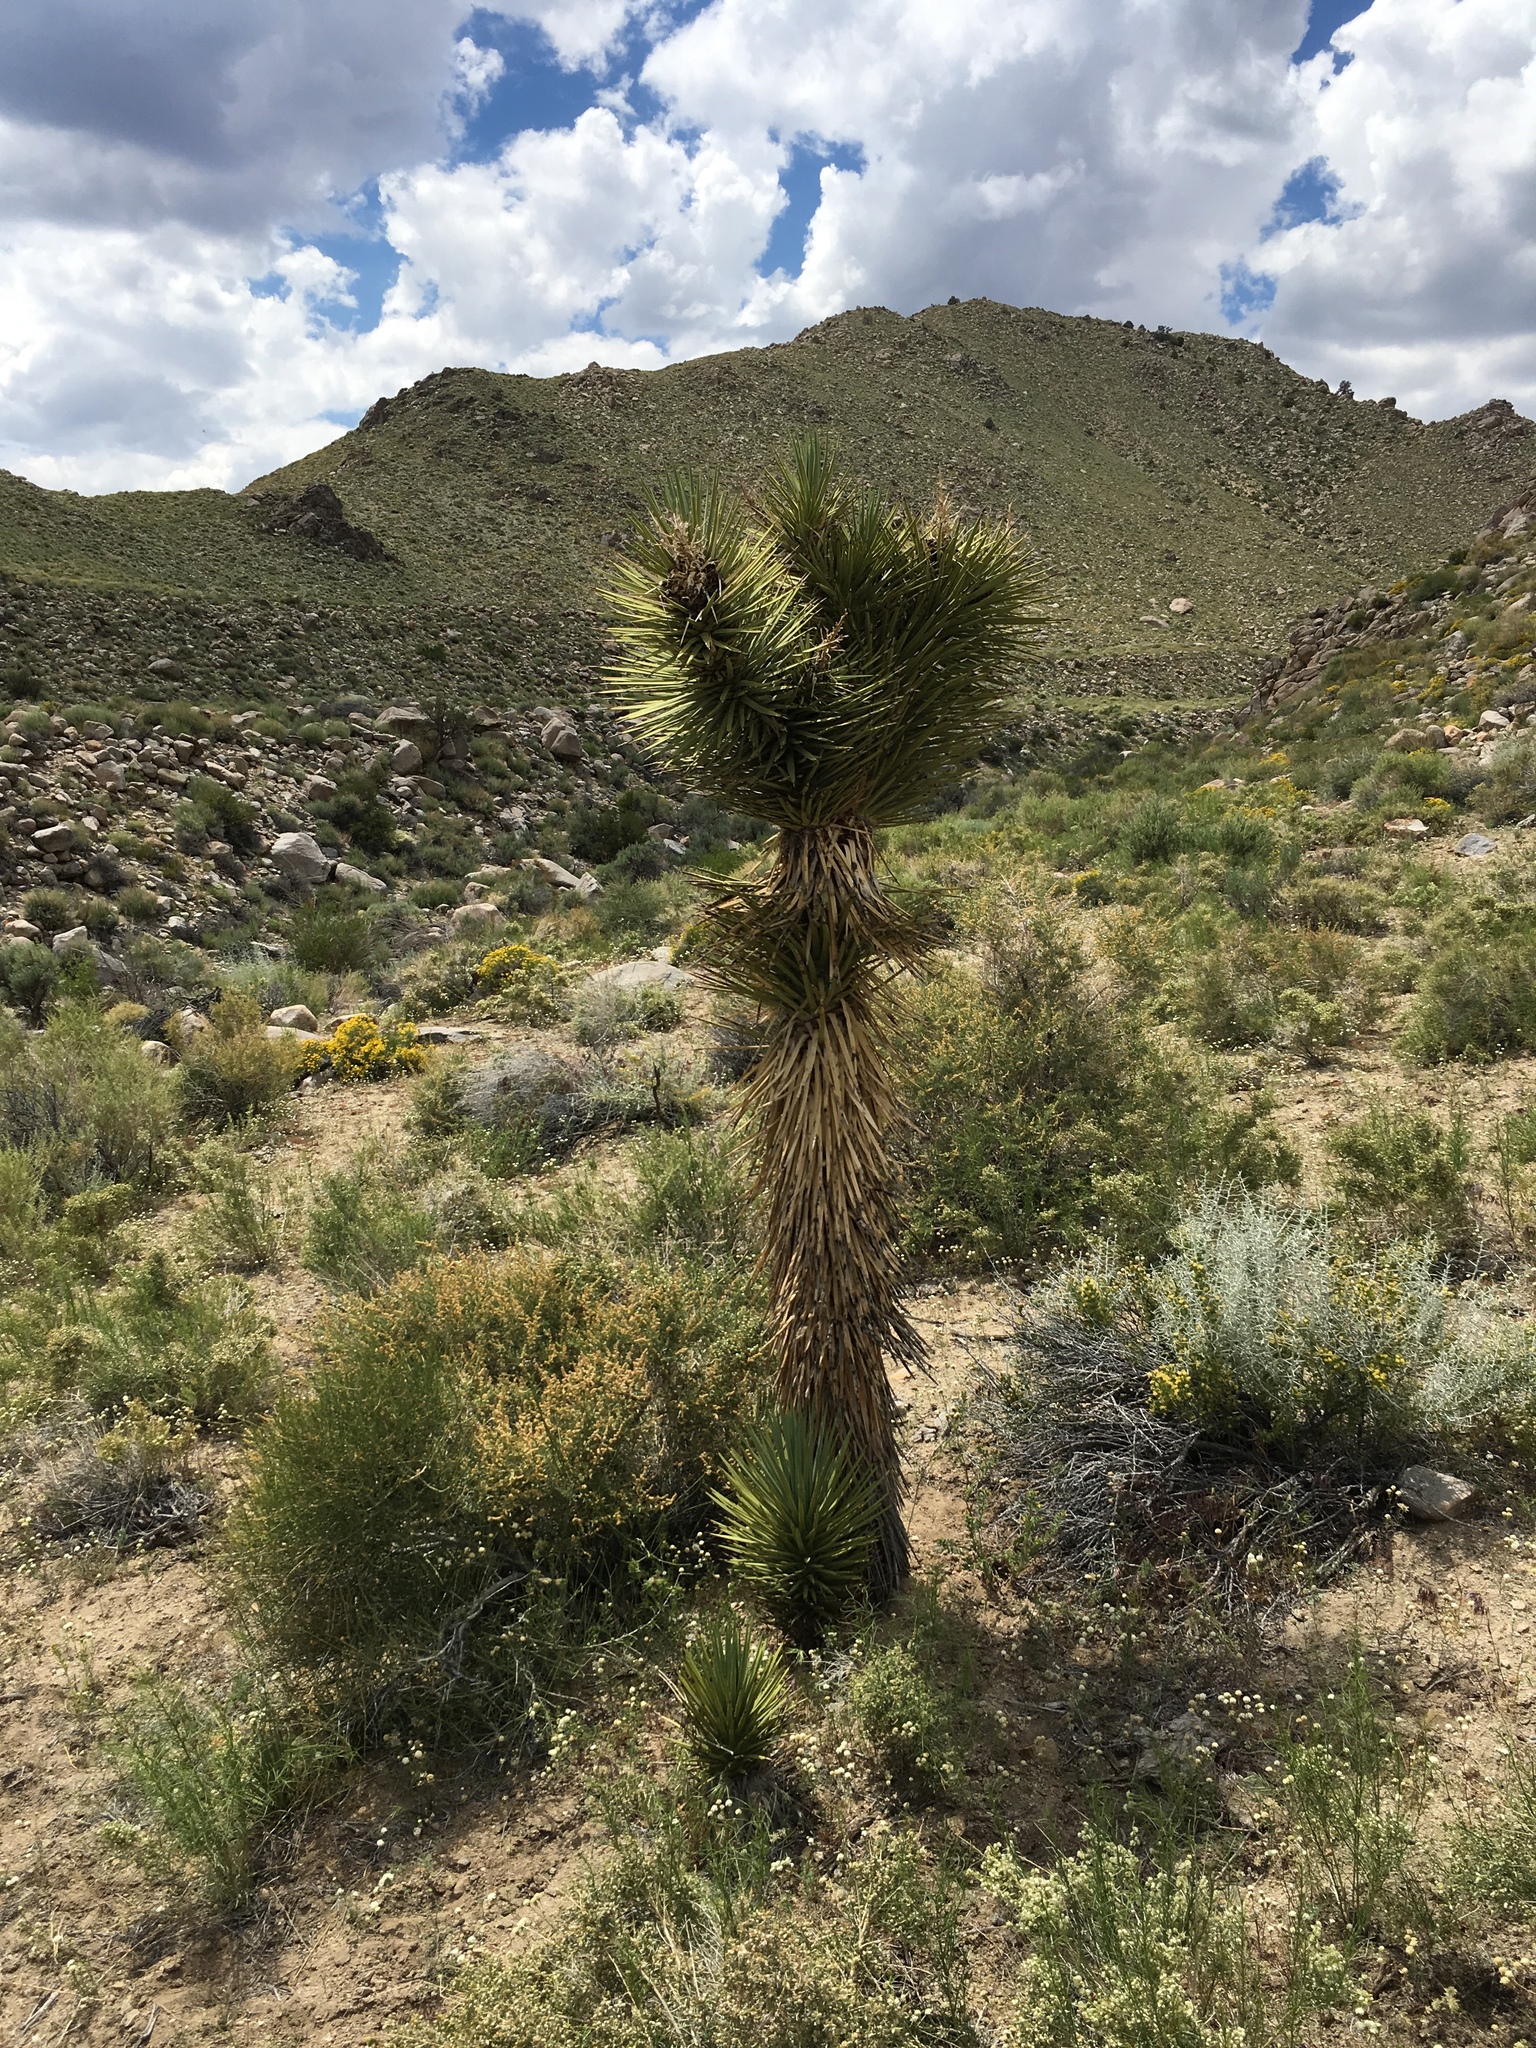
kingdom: Plantae
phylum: Tracheophyta
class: Liliopsida
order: Asparagales
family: Asparagaceae
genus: Yucca
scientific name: Yucca brevifolia
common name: Joshua tree
